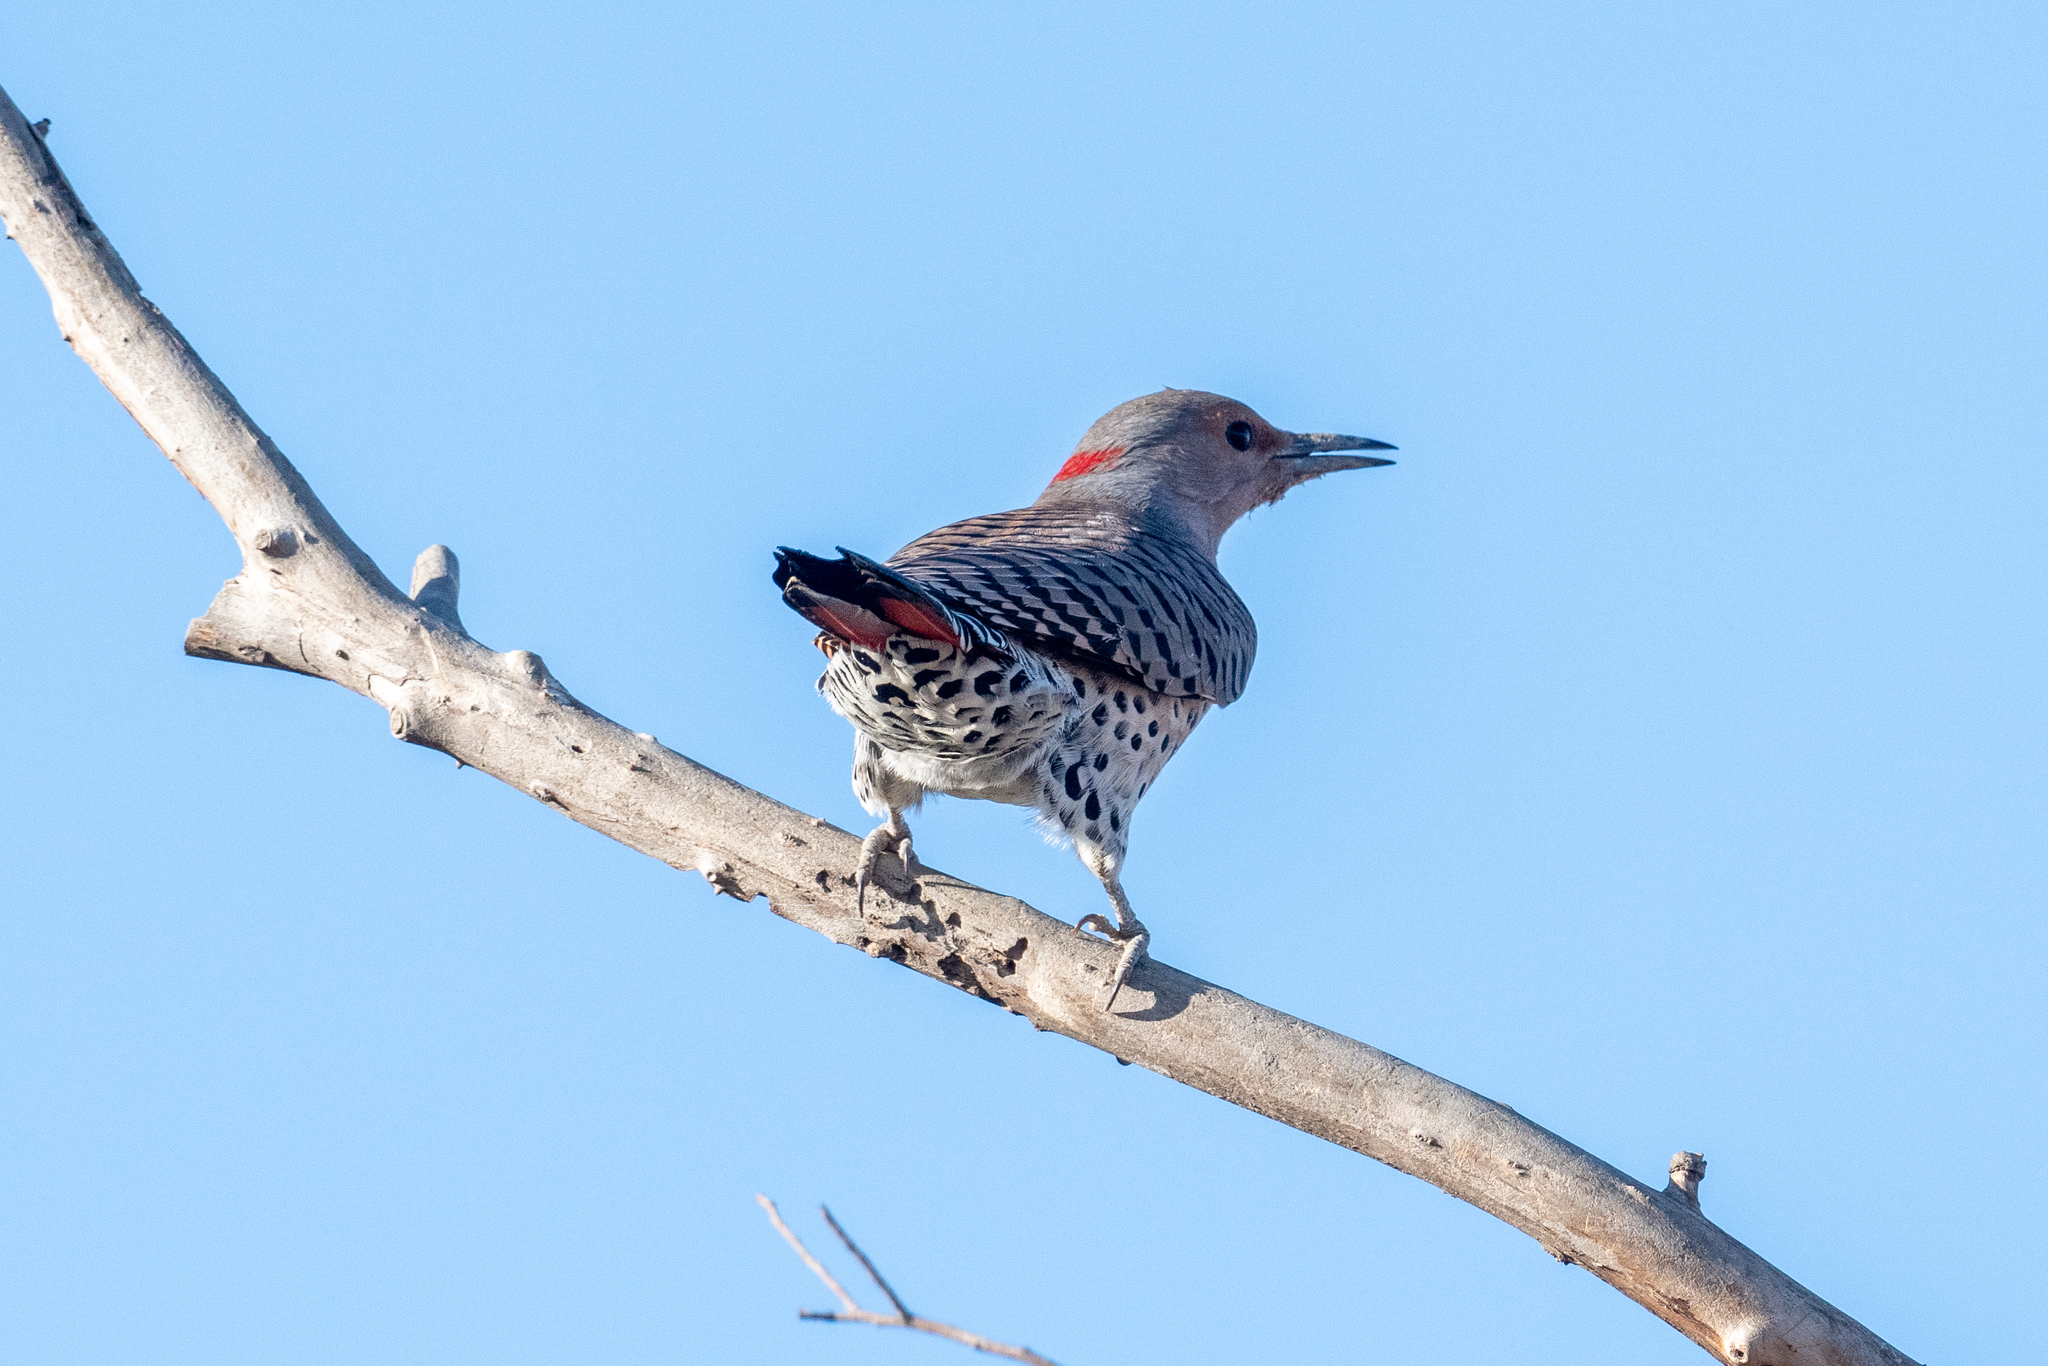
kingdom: Animalia
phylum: Chordata
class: Aves
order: Piciformes
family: Picidae
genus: Colaptes
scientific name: Colaptes auratus
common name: Northern flicker
